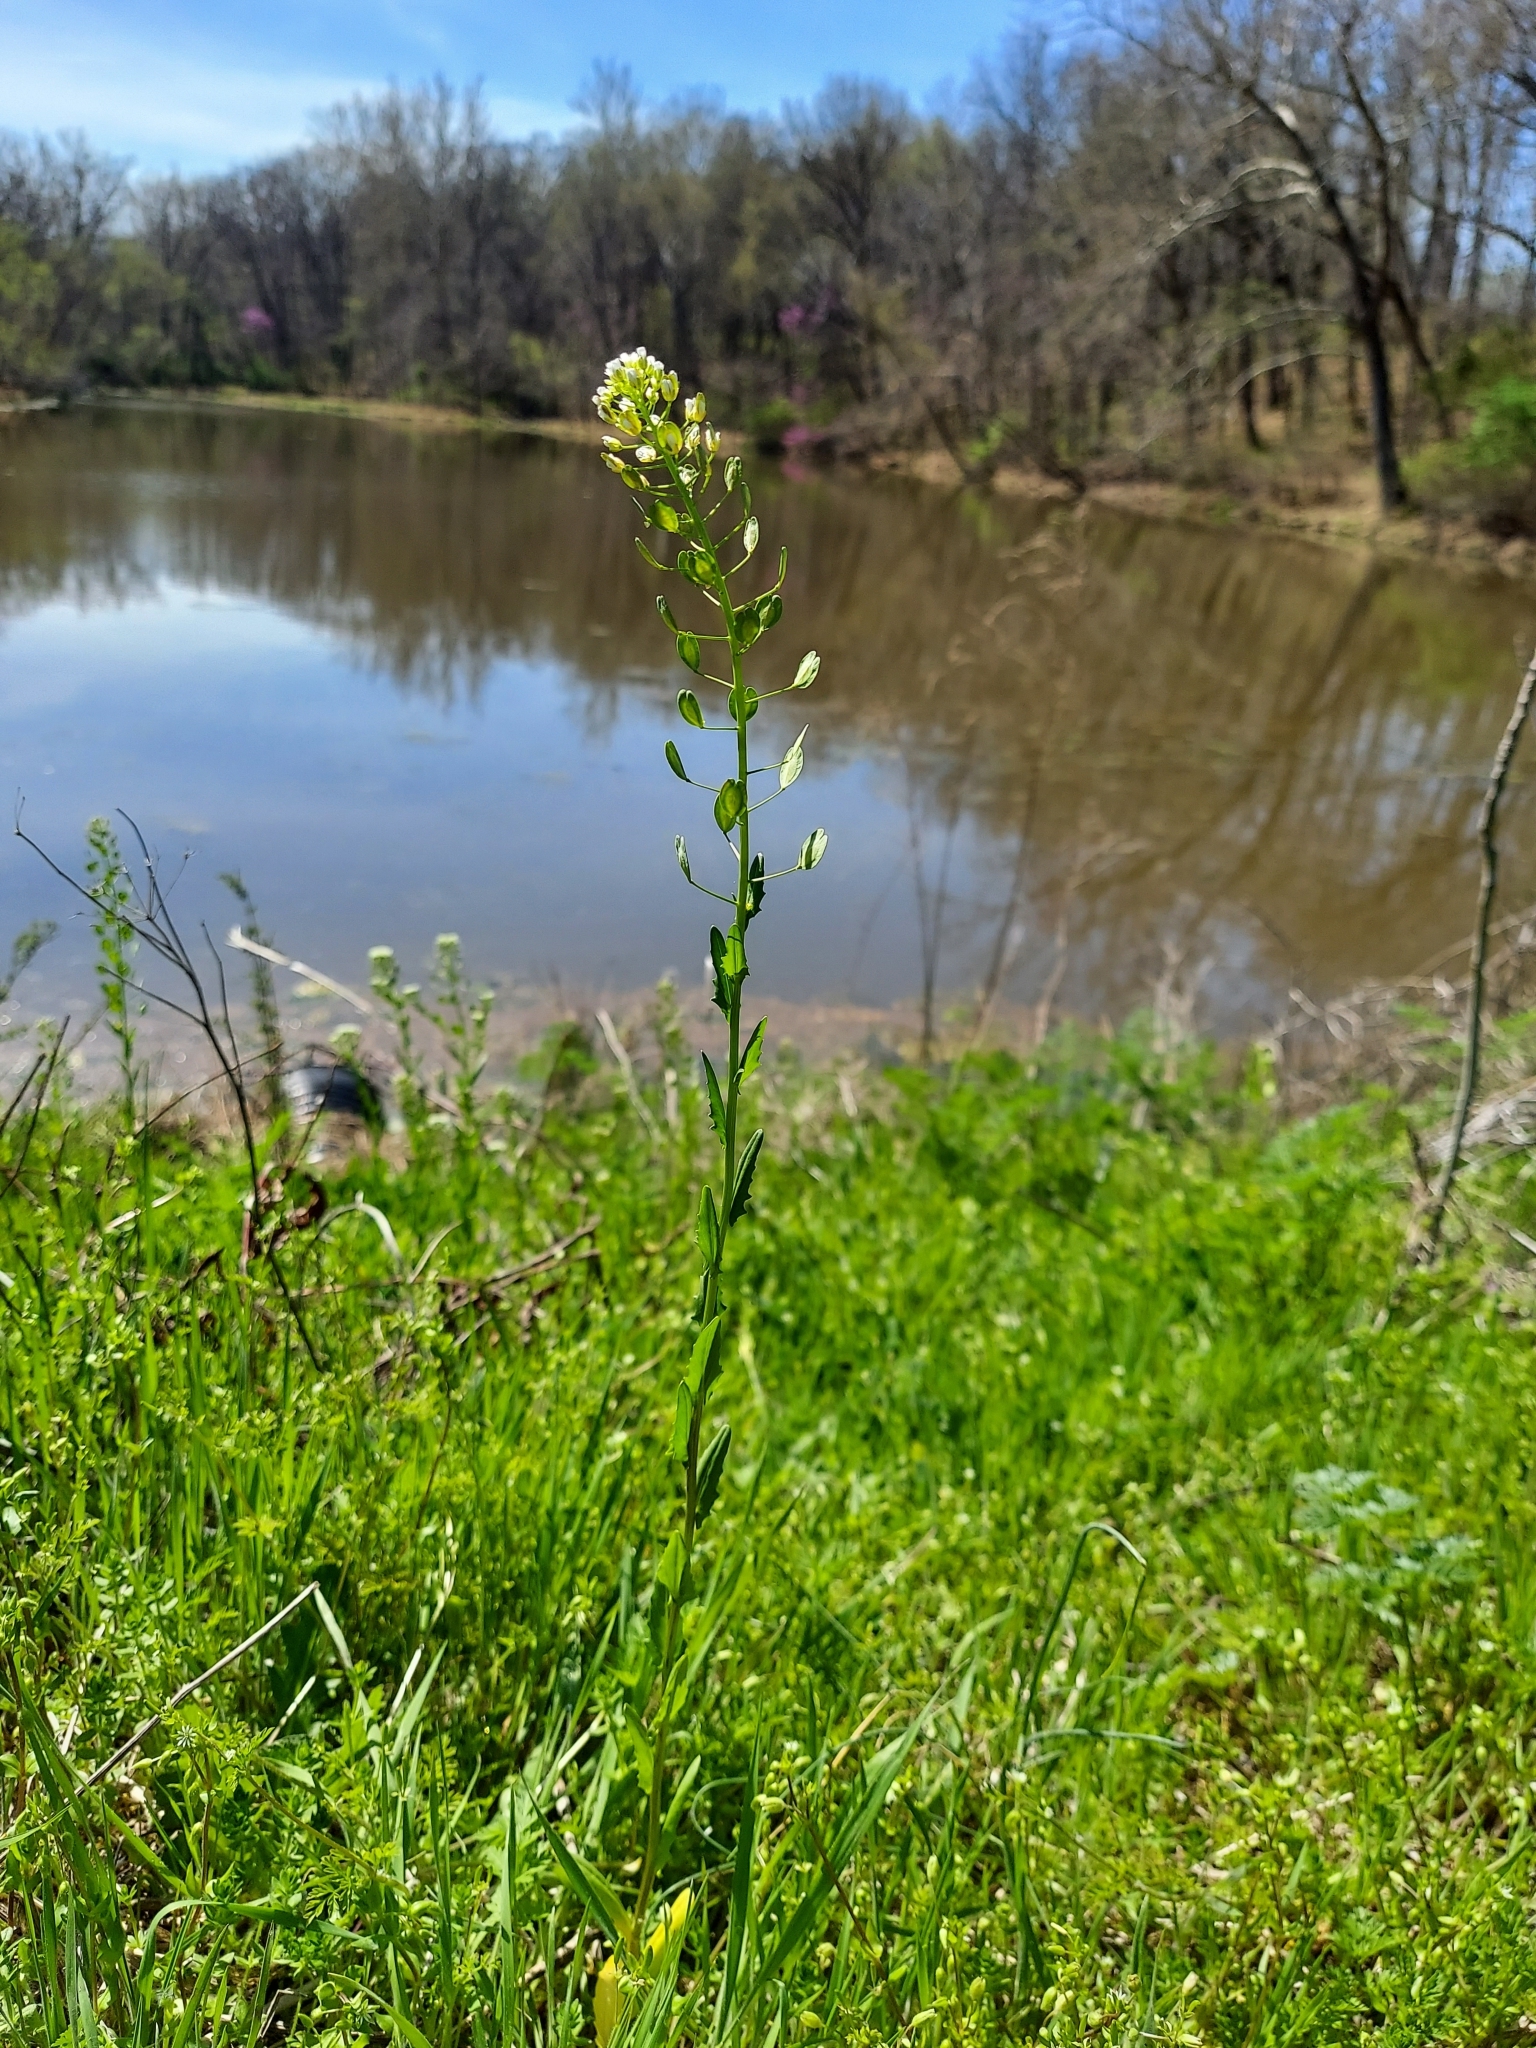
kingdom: Plantae
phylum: Tracheophyta
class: Magnoliopsida
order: Brassicales
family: Brassicaceae
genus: Thlaspi
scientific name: Thlaspi arvense
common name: Field pennycress
